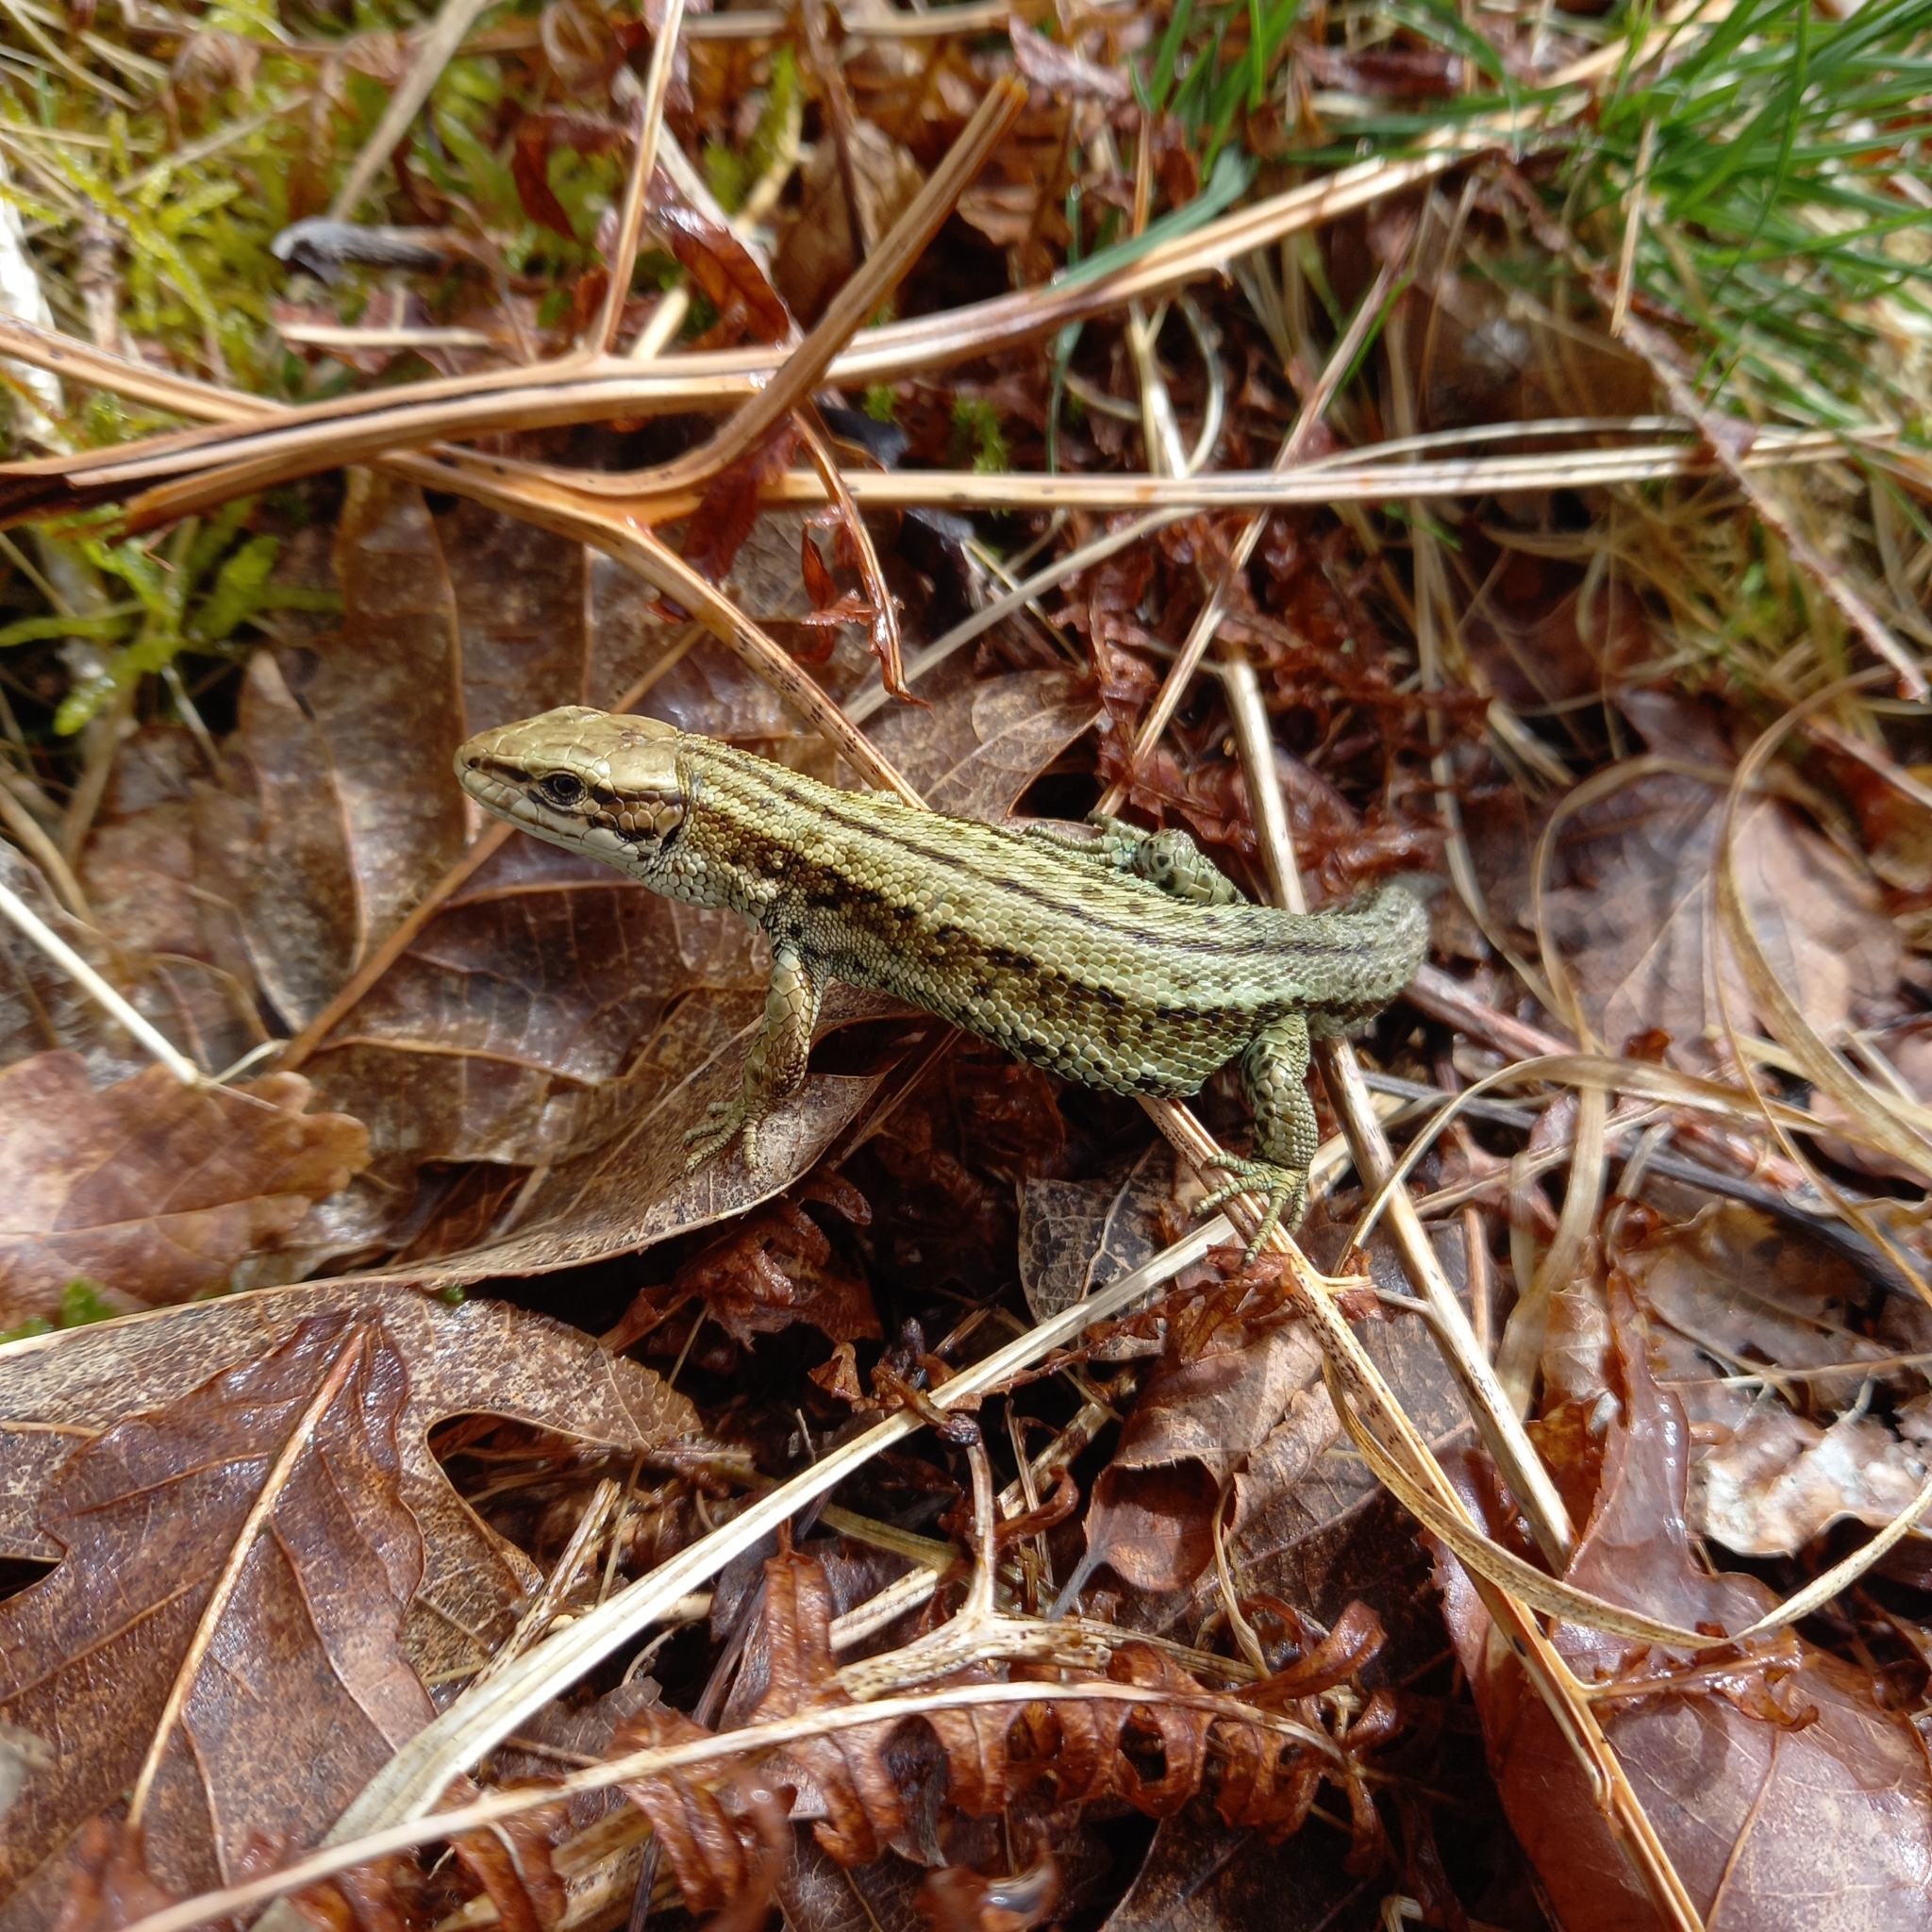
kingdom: Animalia
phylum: Chordata
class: Squamata
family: Lacertidae
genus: Zootoca
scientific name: Zootoca vivipara
